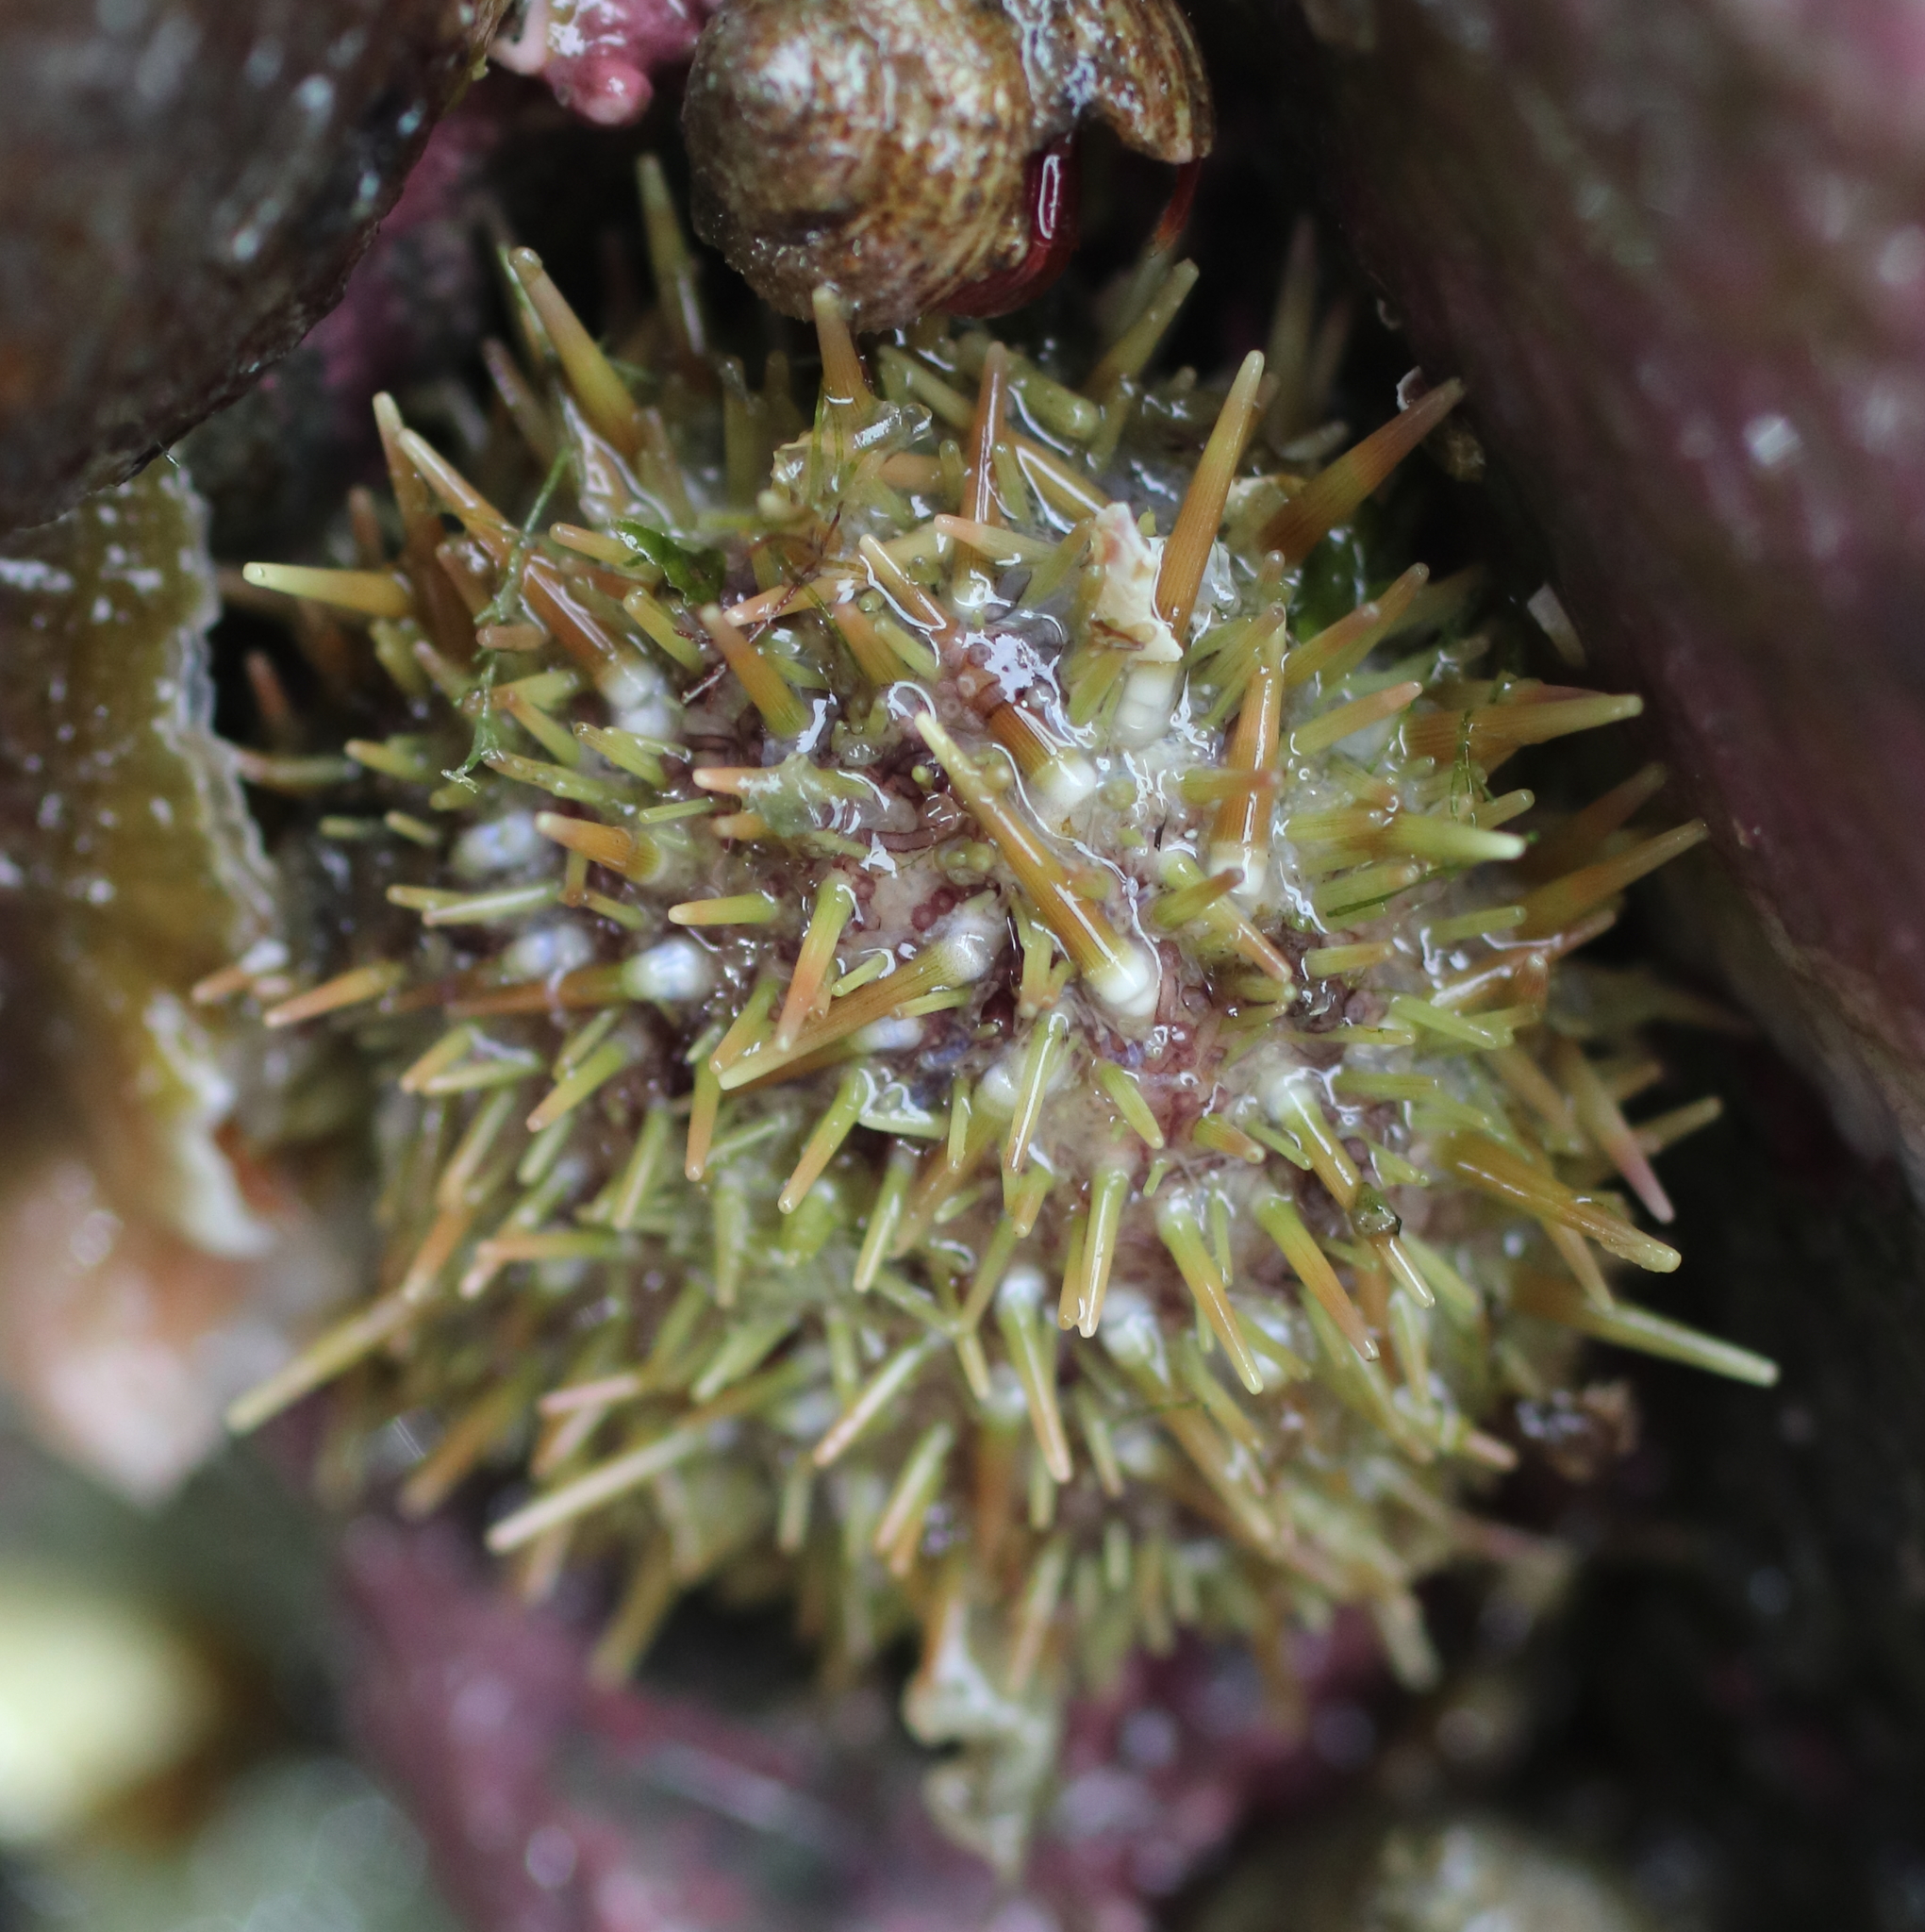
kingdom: Animalia
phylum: Echinodermata
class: Echinoidea
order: Camarodonta
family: Strongylocentrotidae
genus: Strongylocentrotus
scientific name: Strongylocentrotus droebachiensis
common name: Northern sea urchin
